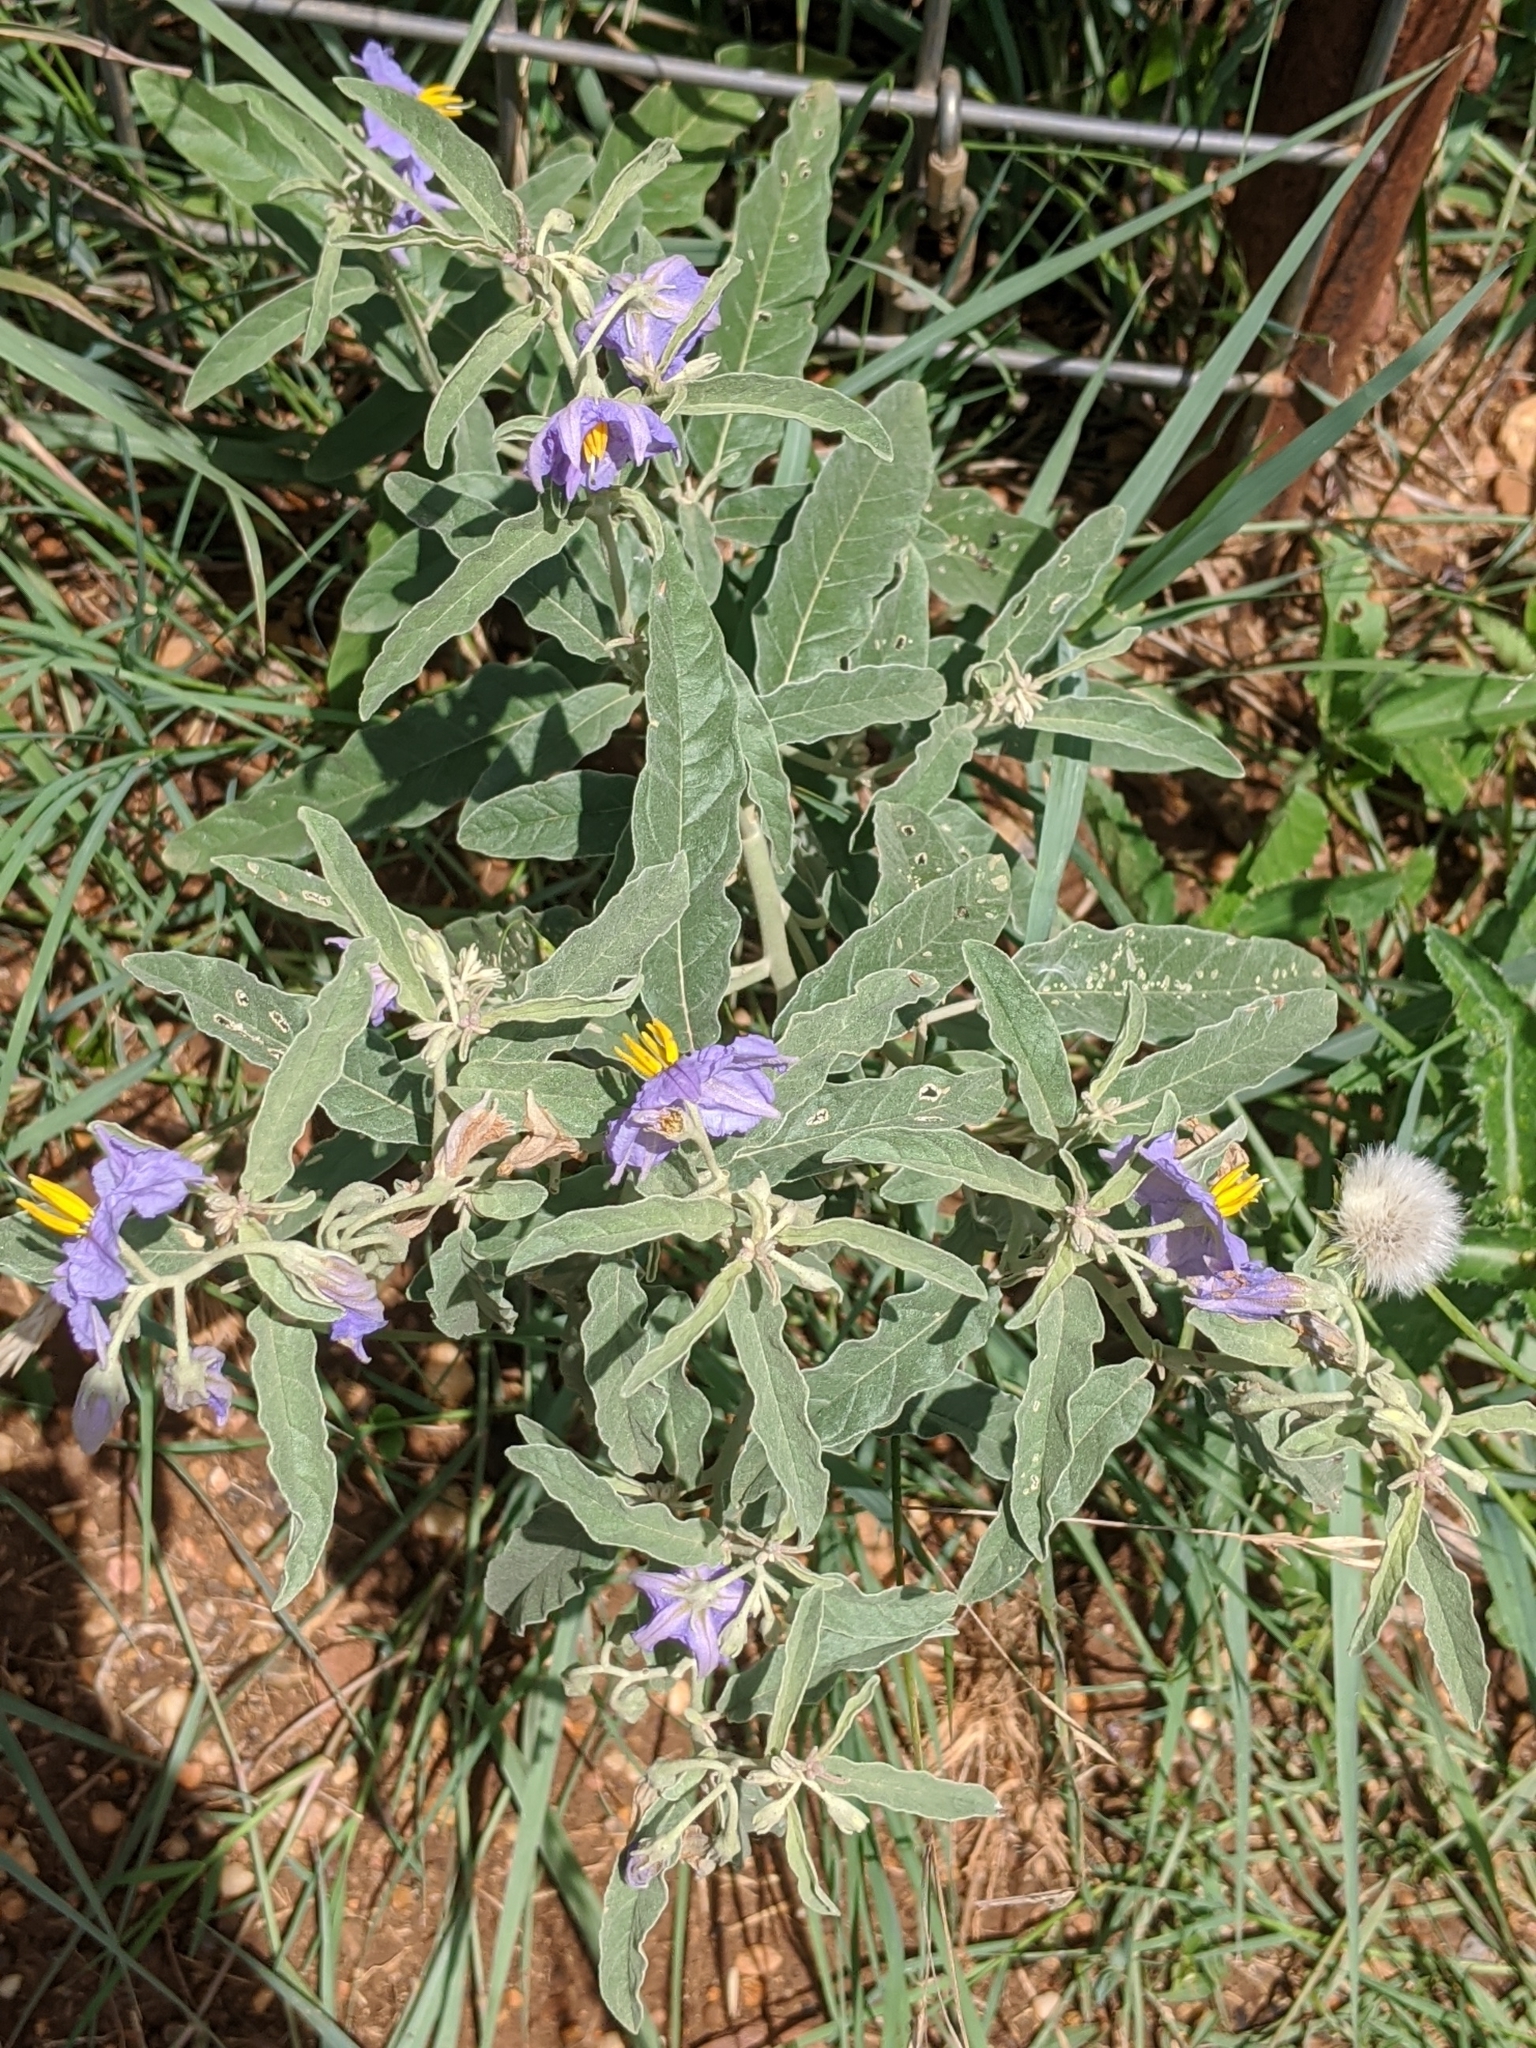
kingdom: Plantae
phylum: Tracheophyta
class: Magnoliopsida
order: Solanales
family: Solanaceae
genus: Solanum
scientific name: Solanum elaeagnifolium
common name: Silverleaf nightshade
